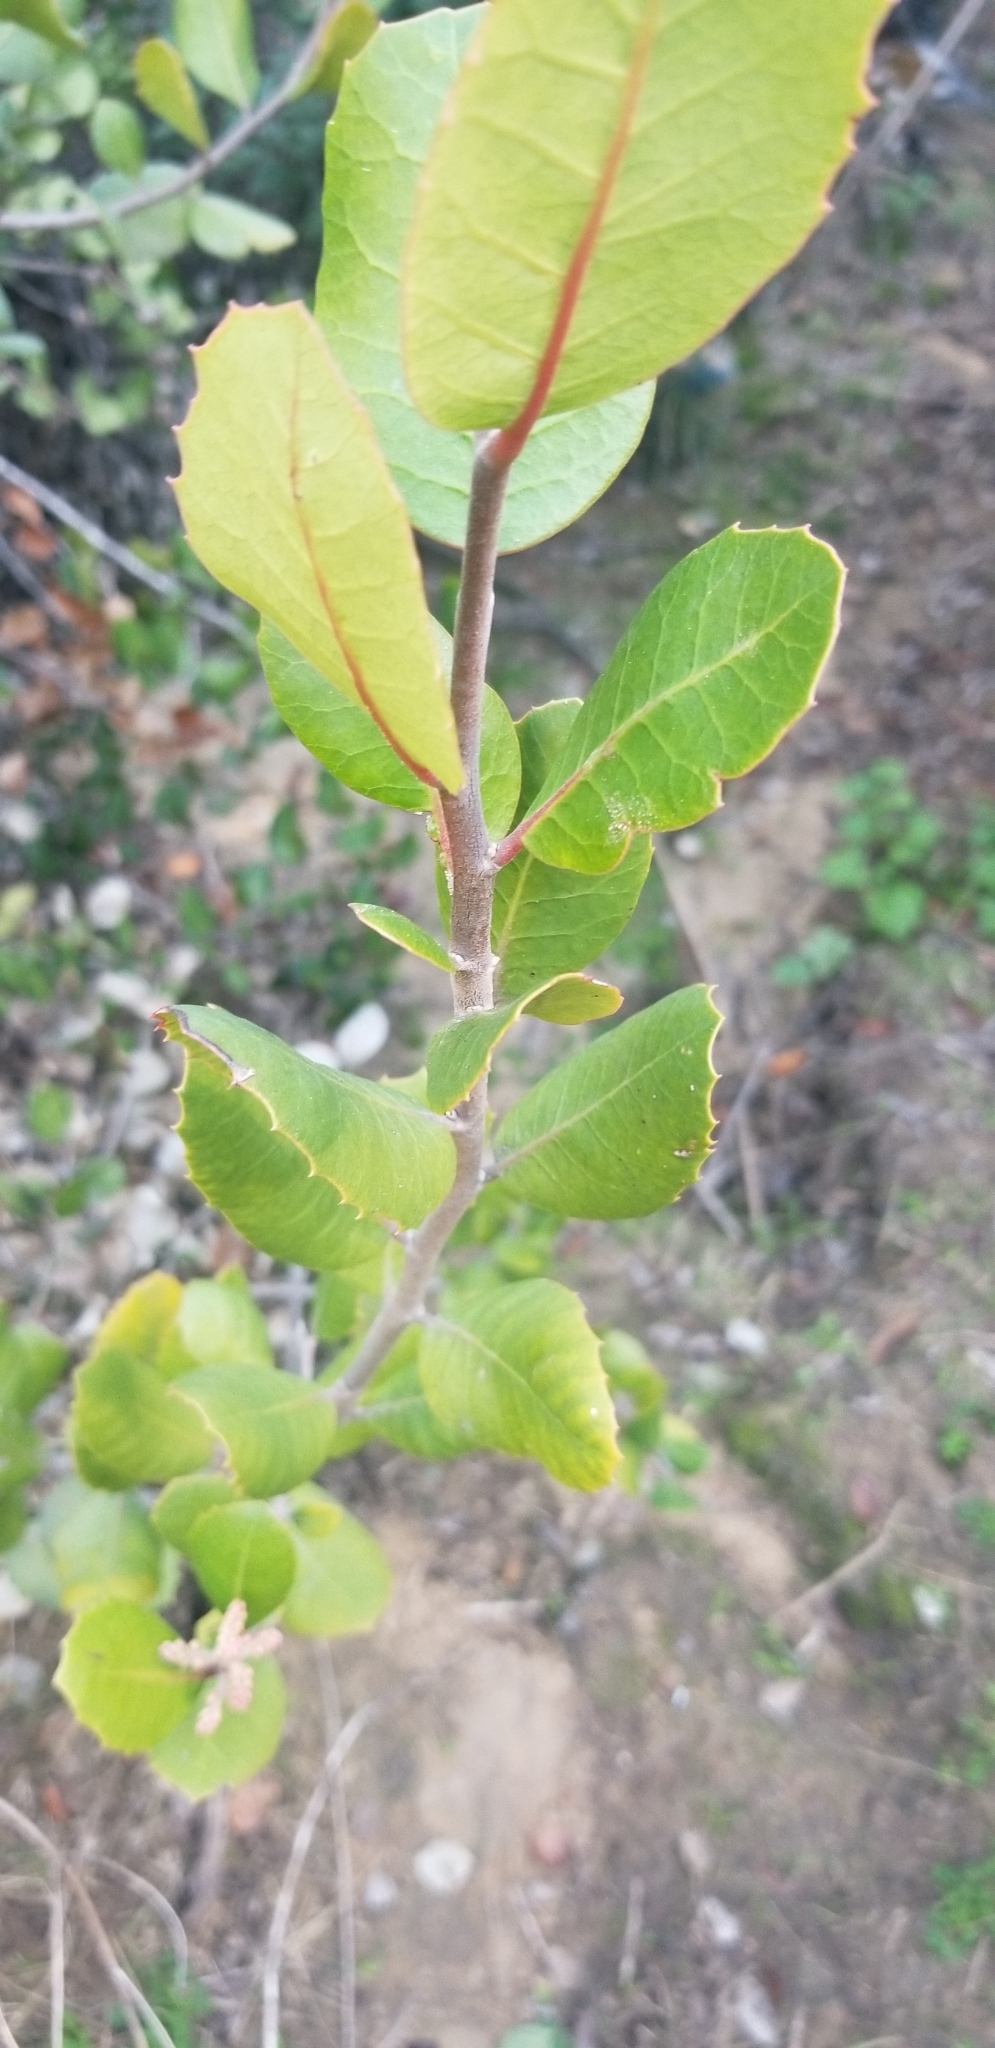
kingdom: Plantae
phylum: Tracheophyta
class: Magnoliopsida
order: Sapindales
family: Anacardiaceae
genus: Rhus
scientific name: Rhus integrifolia
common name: Lemonade sumac
